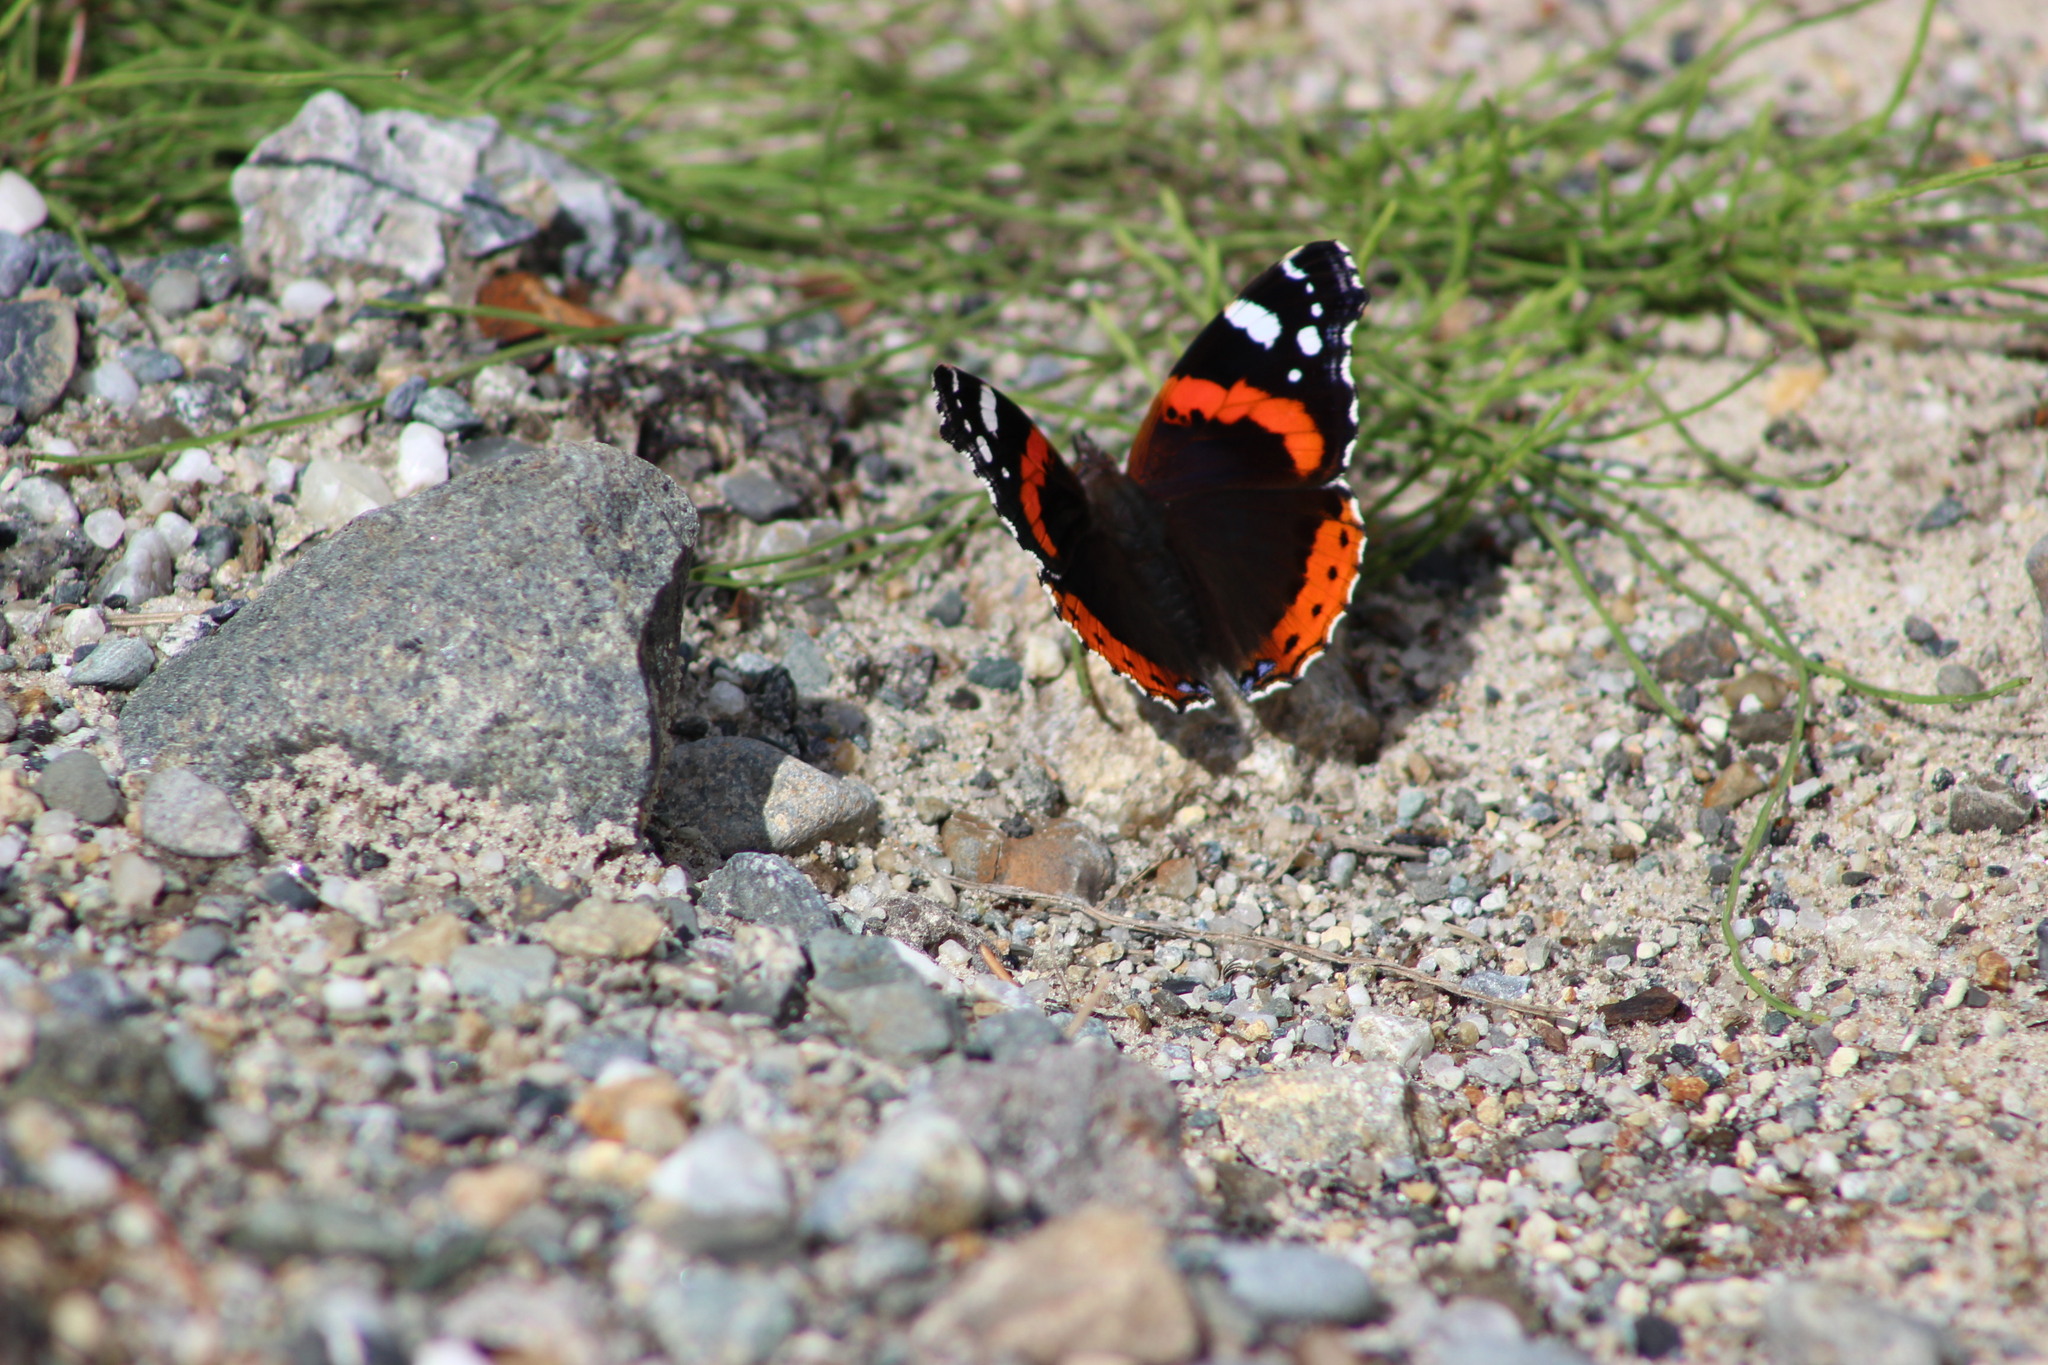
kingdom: Animalia
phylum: Arthropoda
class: Insecta
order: Lepidoptera
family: Nymphalidae
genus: Vanessa
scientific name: Vanessa atalanta
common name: Red admiral
